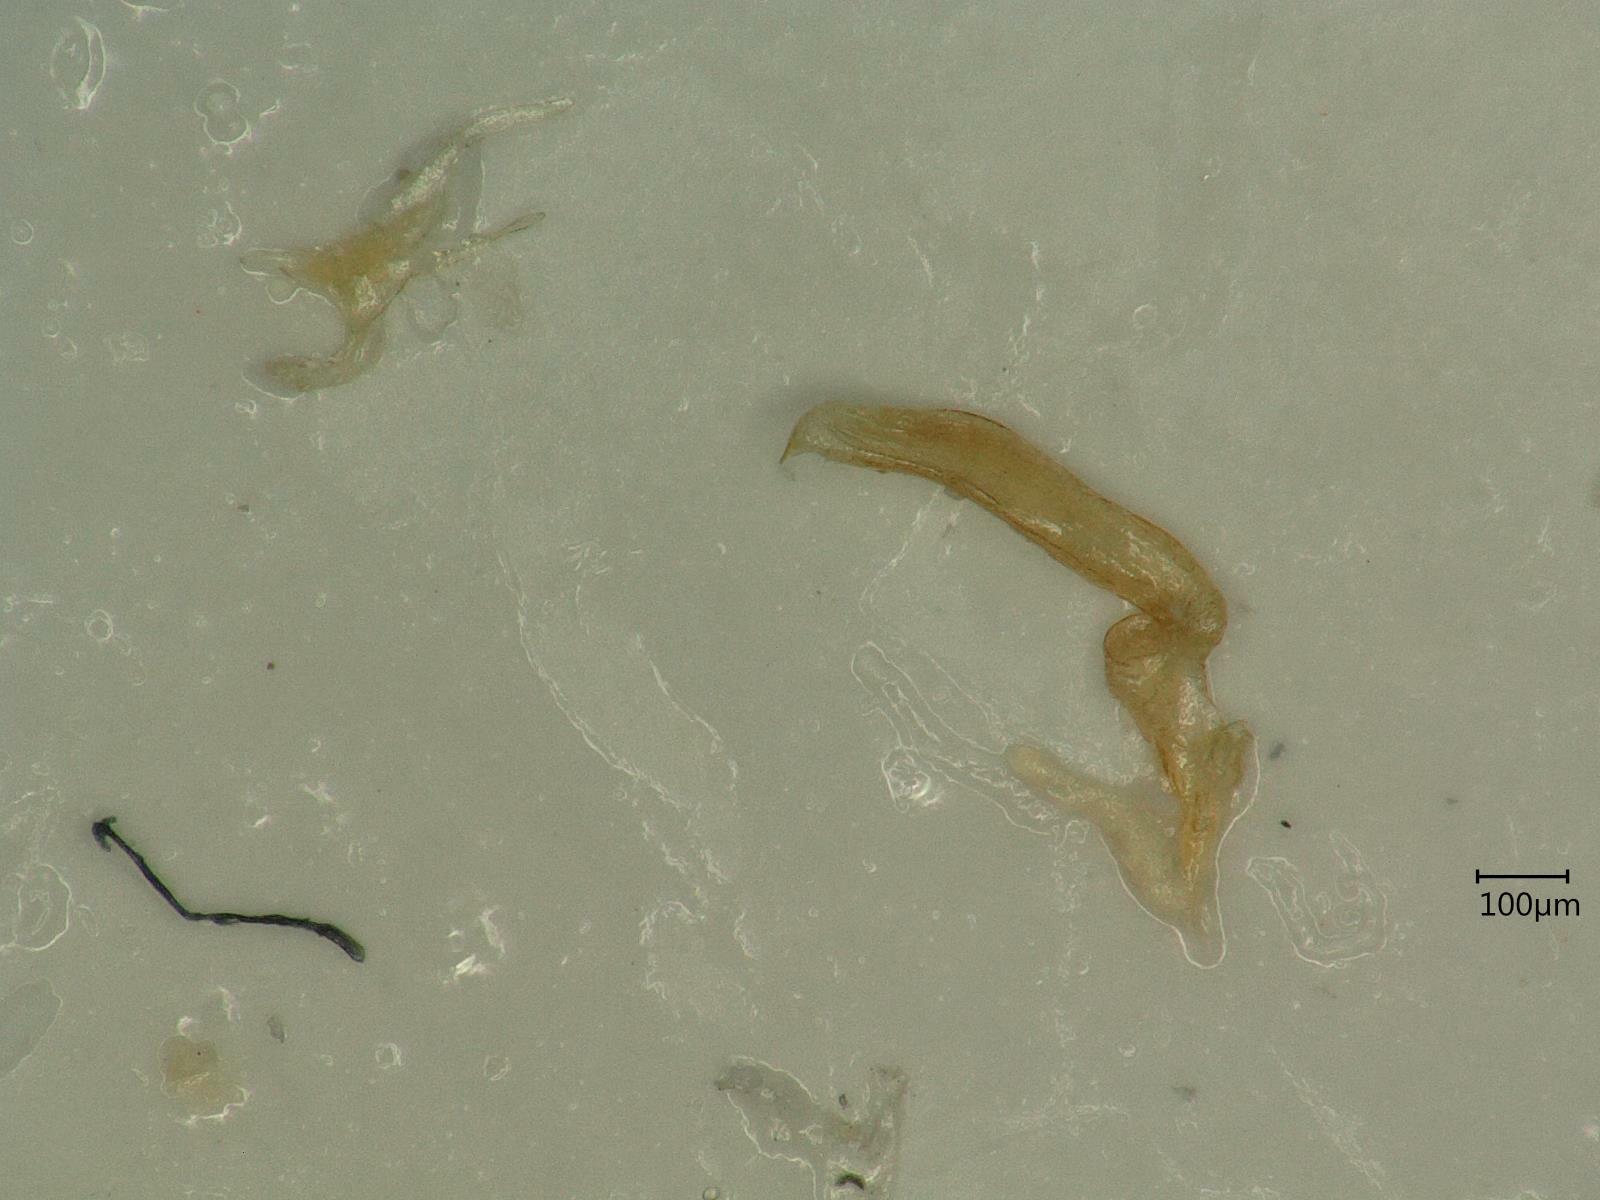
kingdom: Animalia
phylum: Arthropoda
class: Insecta
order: Hemiptera
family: Cicadellidae
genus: Oncopsis
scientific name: Oncopsis flavicollis
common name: Leafhopper
